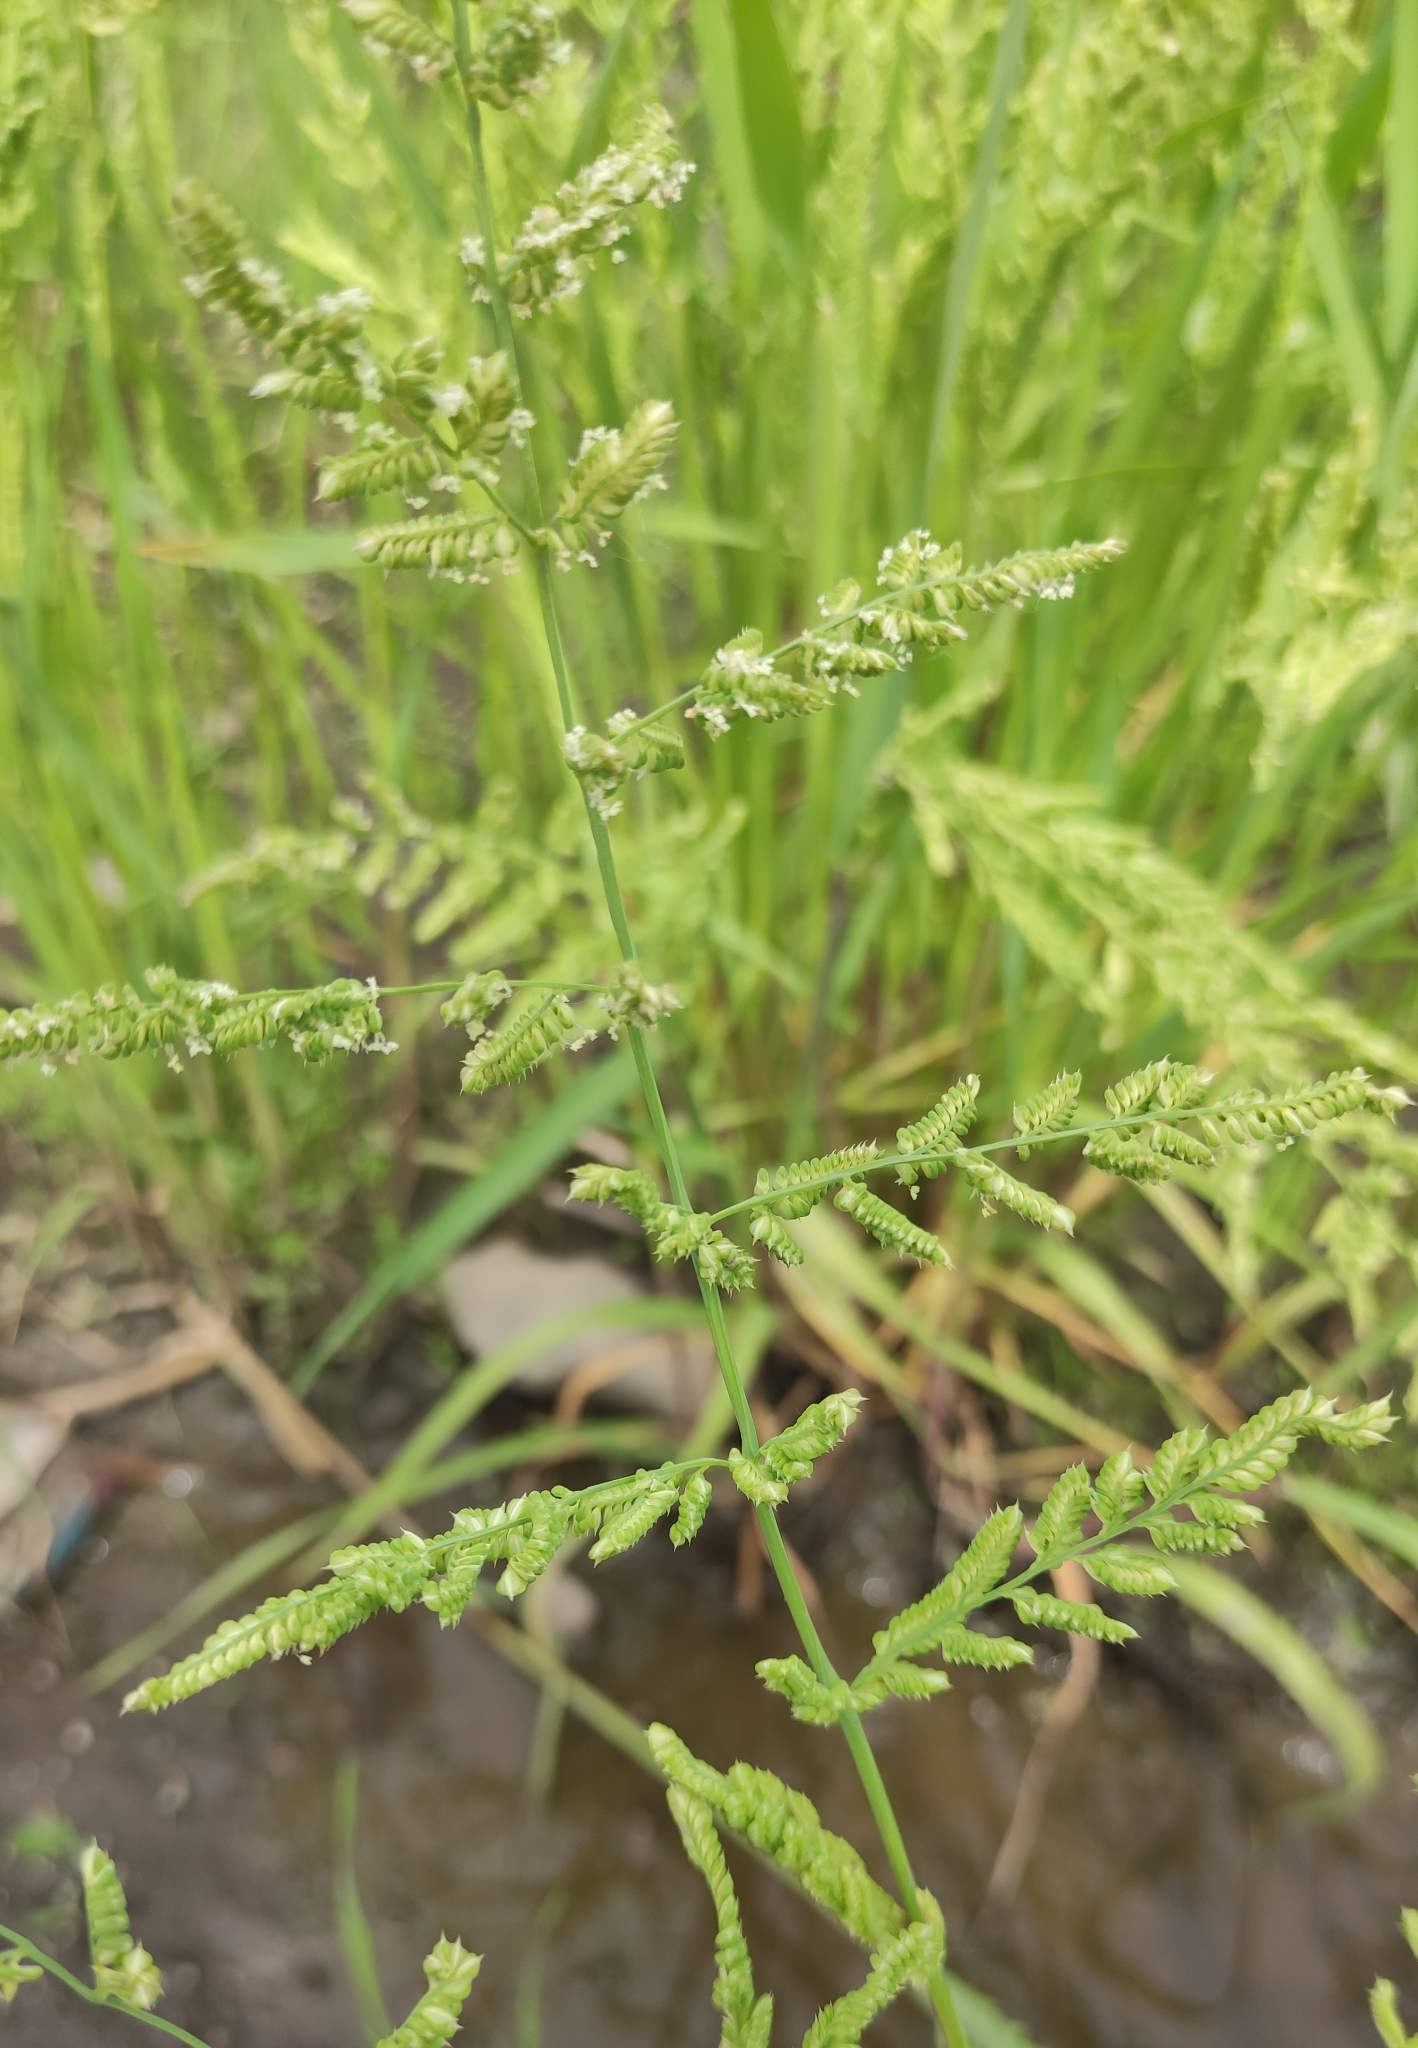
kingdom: Plantae
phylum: Tracheophyta
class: Liliopsida
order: Poales
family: Poaceae
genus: Beckmannia
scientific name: Beckmannia syzigachne
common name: American slough-grass
